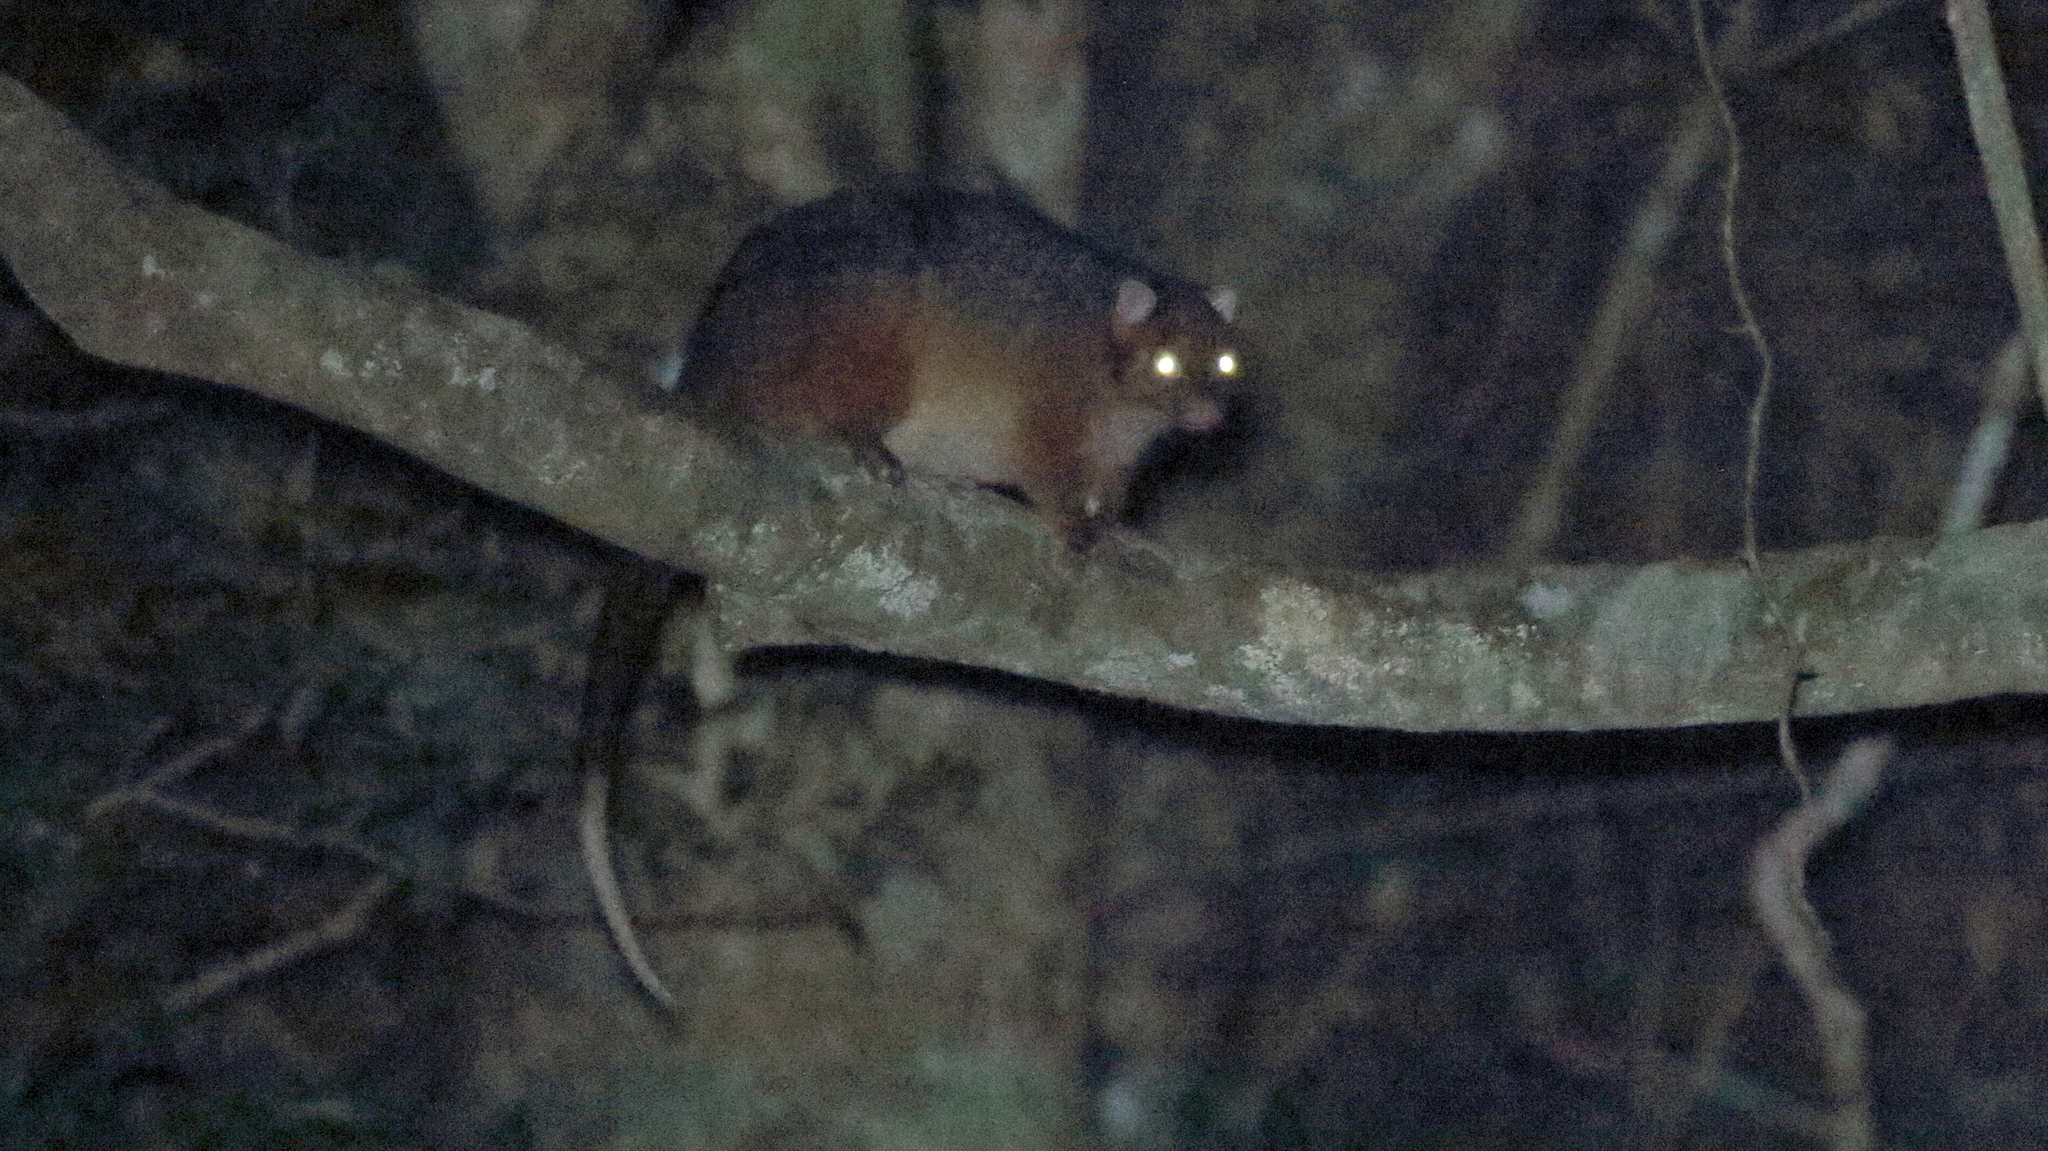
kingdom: Animalia
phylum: Chordata
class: Mammalia
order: Diprotodontia
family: Pseudocheiridae
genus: Pseudocheirus
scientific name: Pseudocheirus peregrinus
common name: Common ringtail possum
